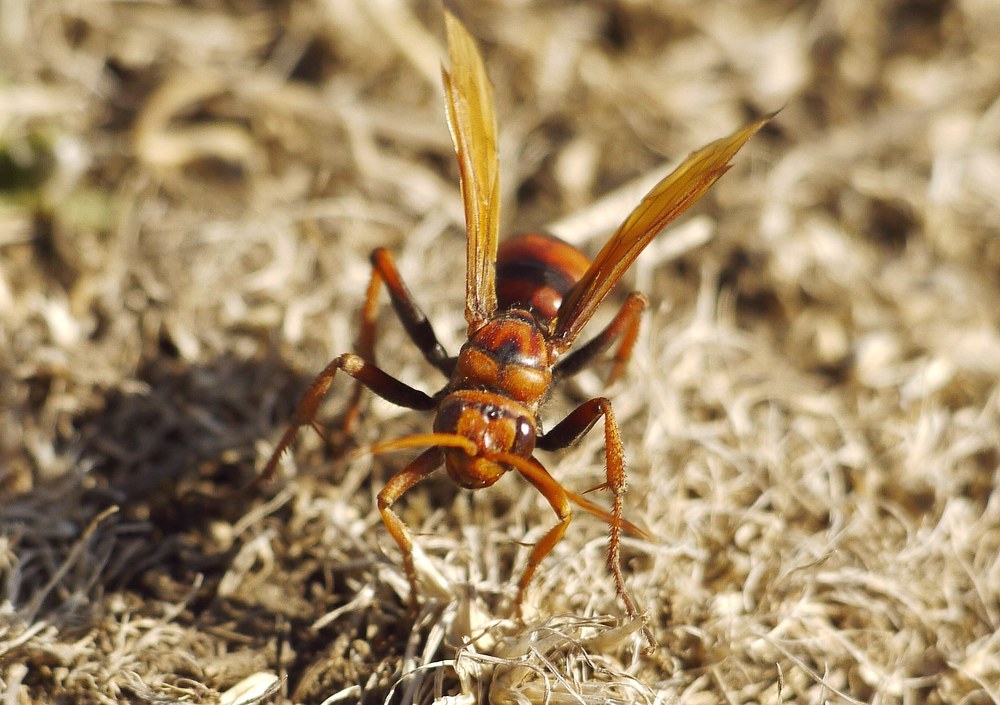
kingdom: Animalia
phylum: Arthropoda
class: Insecta
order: Hymenoptera
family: Pompilidae
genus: Cryptocheilus
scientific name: Cryptocheilus rubellus
